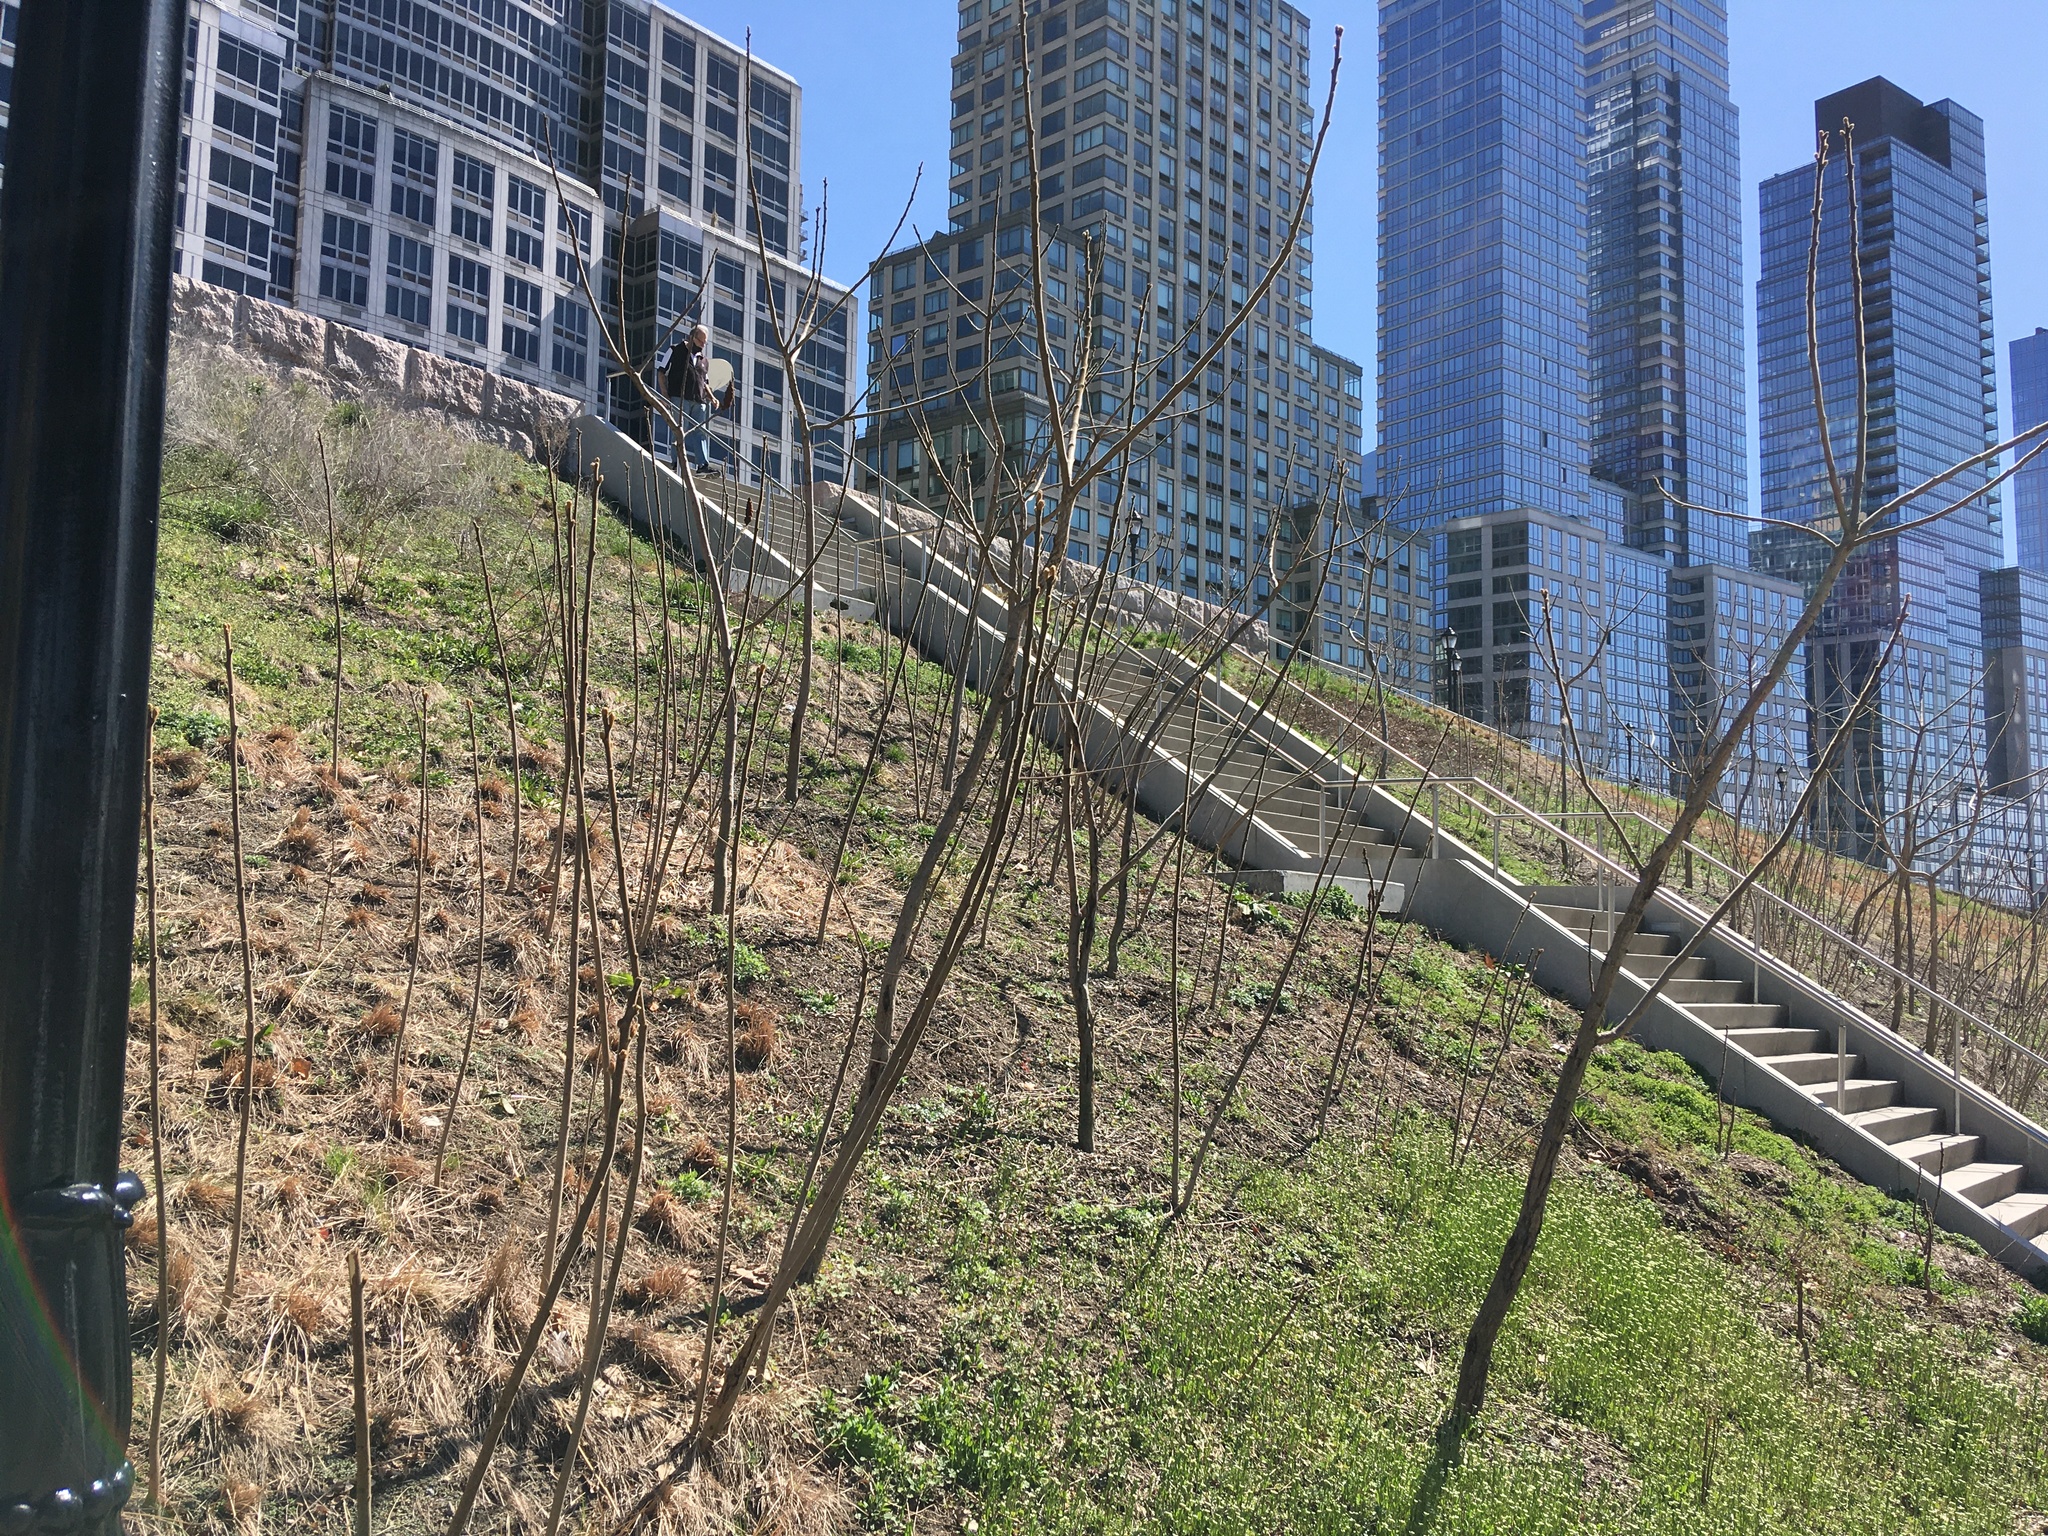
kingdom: Plantae
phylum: Tracheophyta
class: Magnoliopsida
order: Sapindales
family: Anacardiaceae
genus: Rhus
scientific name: Rhus typhina
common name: Staghorn sumac
